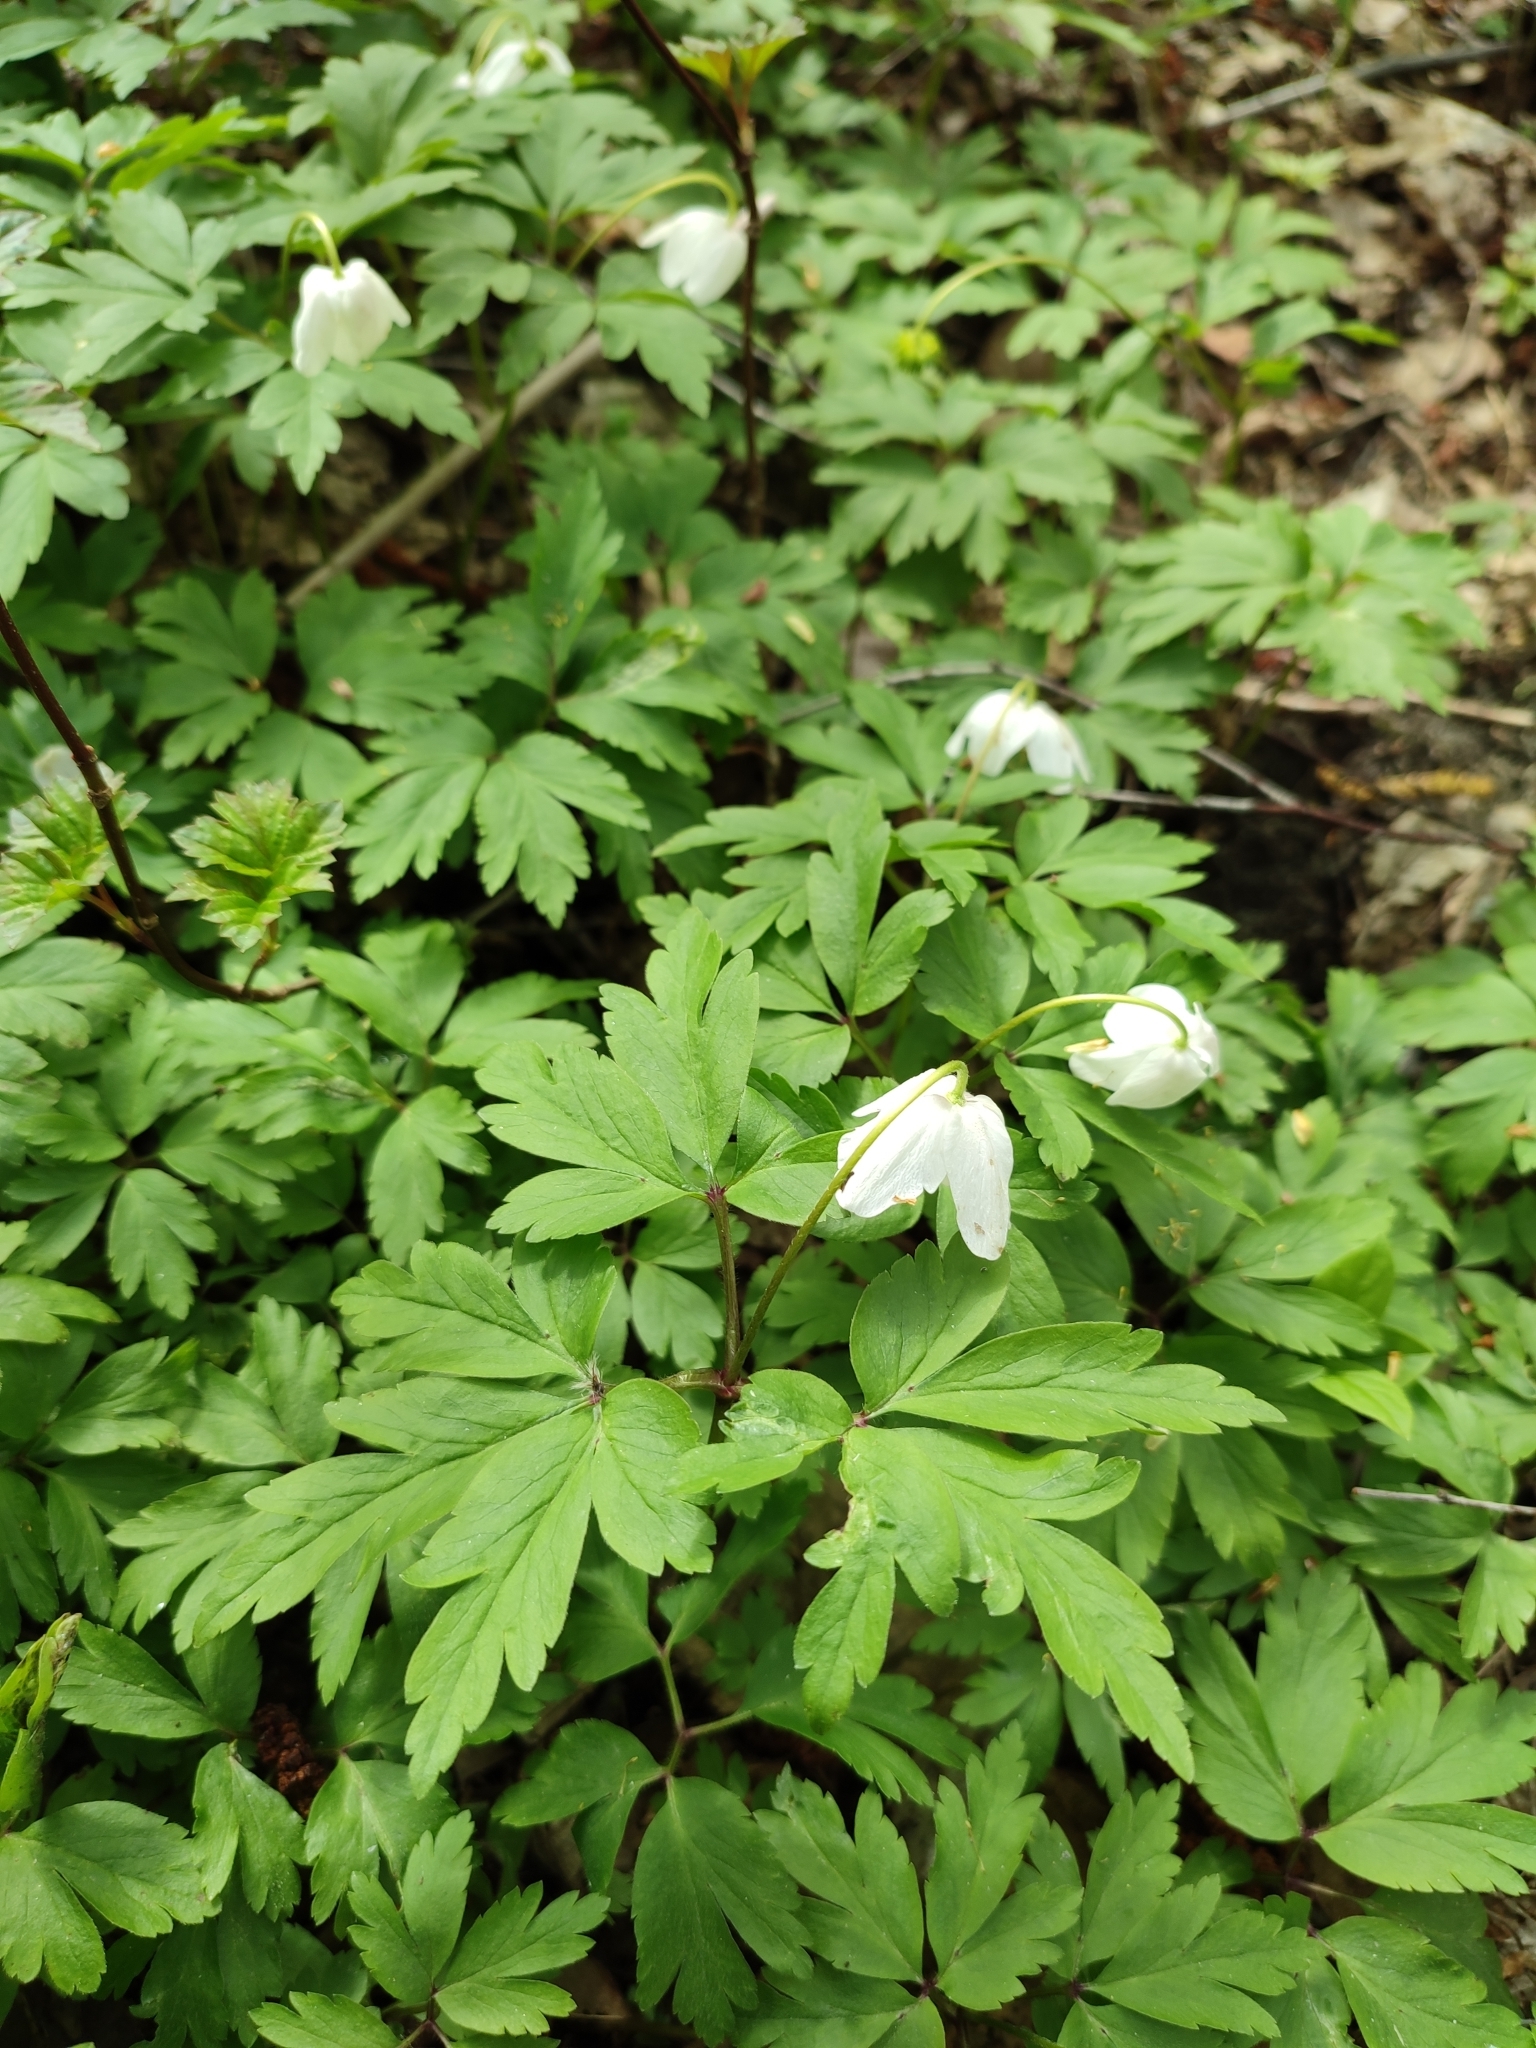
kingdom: Plantae
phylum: Tracheophyta
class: Magnoliopsida
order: Ranunculales
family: Ranunculaceae
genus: Anemone
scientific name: Anemone nemorosa
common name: Wood anemone
